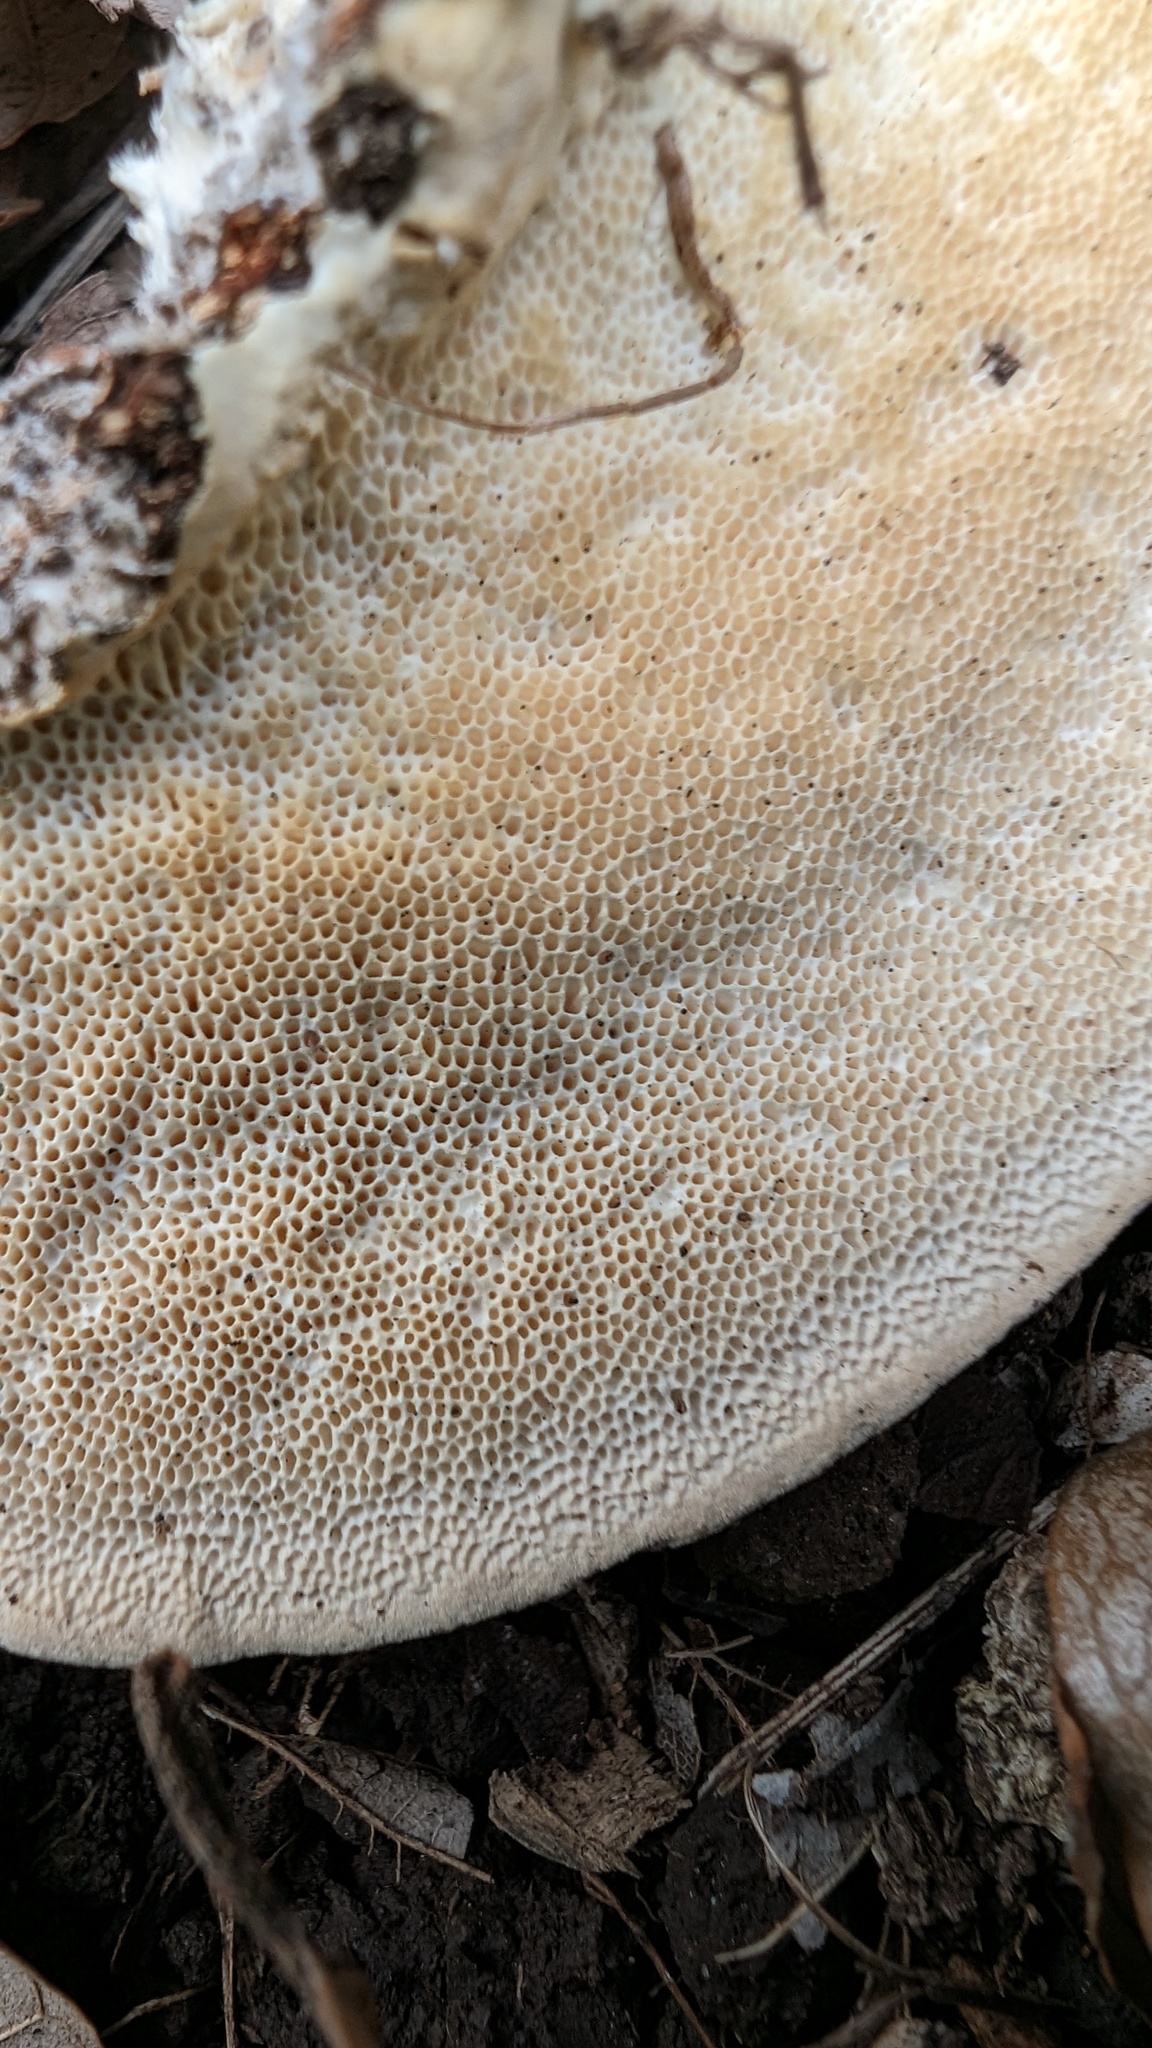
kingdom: Fungi
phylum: Basidiomycota
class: Agaricomycetes
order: Polyporales
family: Polyporaceae
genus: Trametes
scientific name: Trametes orientalis
